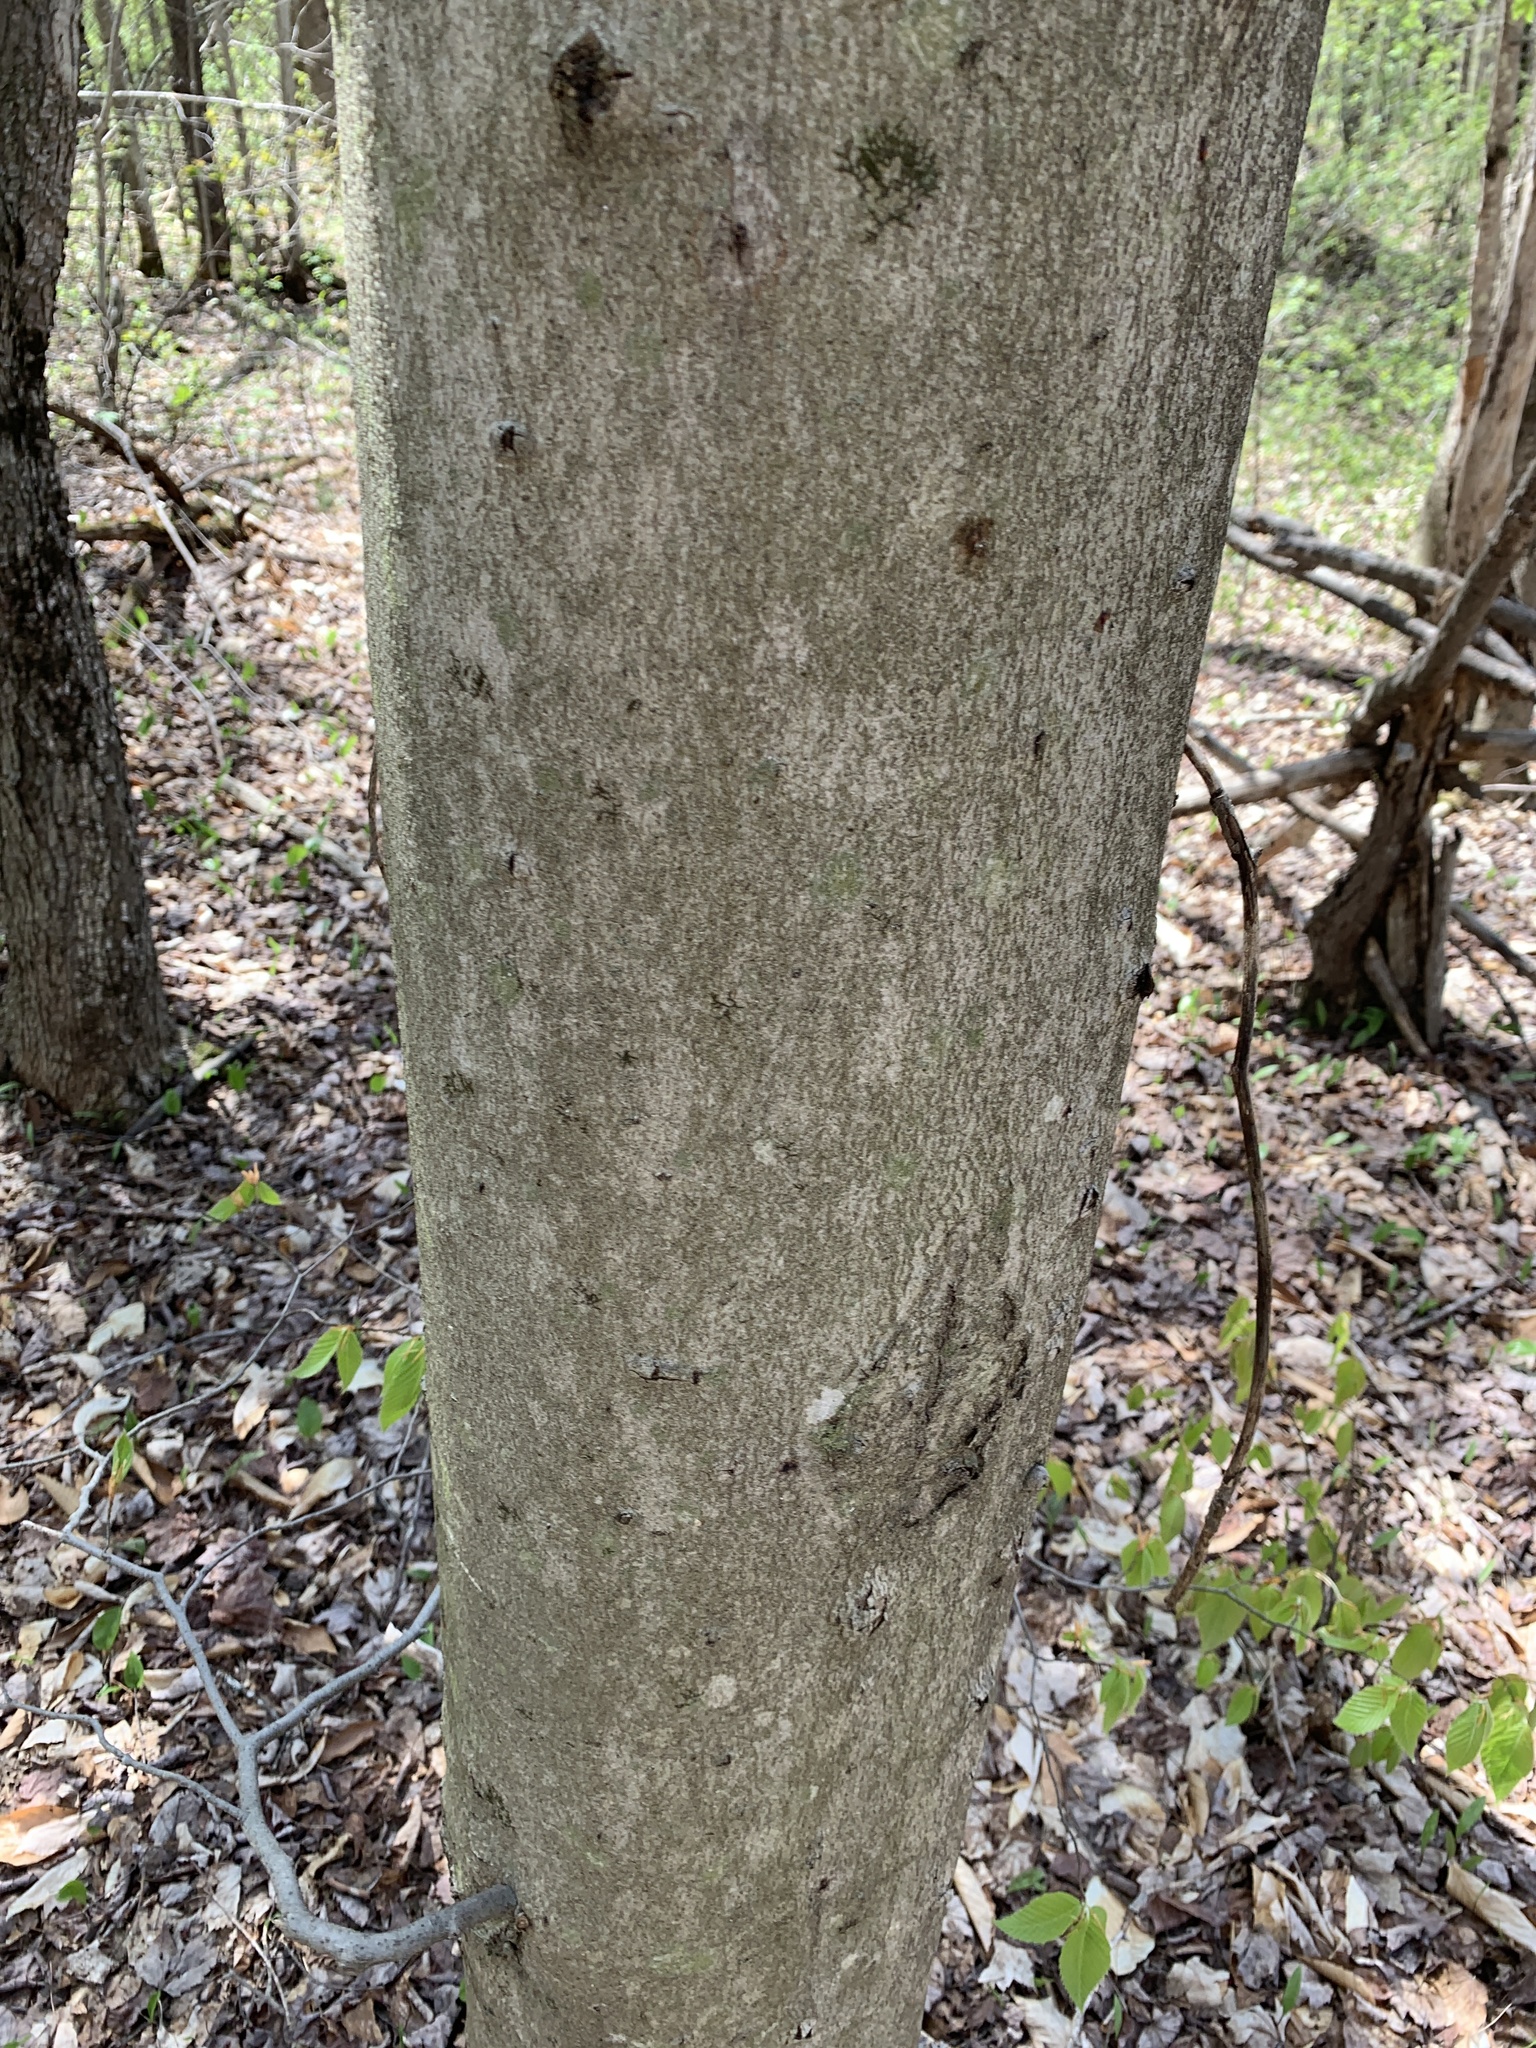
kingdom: Plantae
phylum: Tracheophyta
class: Magnoliopsida
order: Fagales
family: Fagaceae
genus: Fagus
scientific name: Fagus grandifolia
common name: American beech
